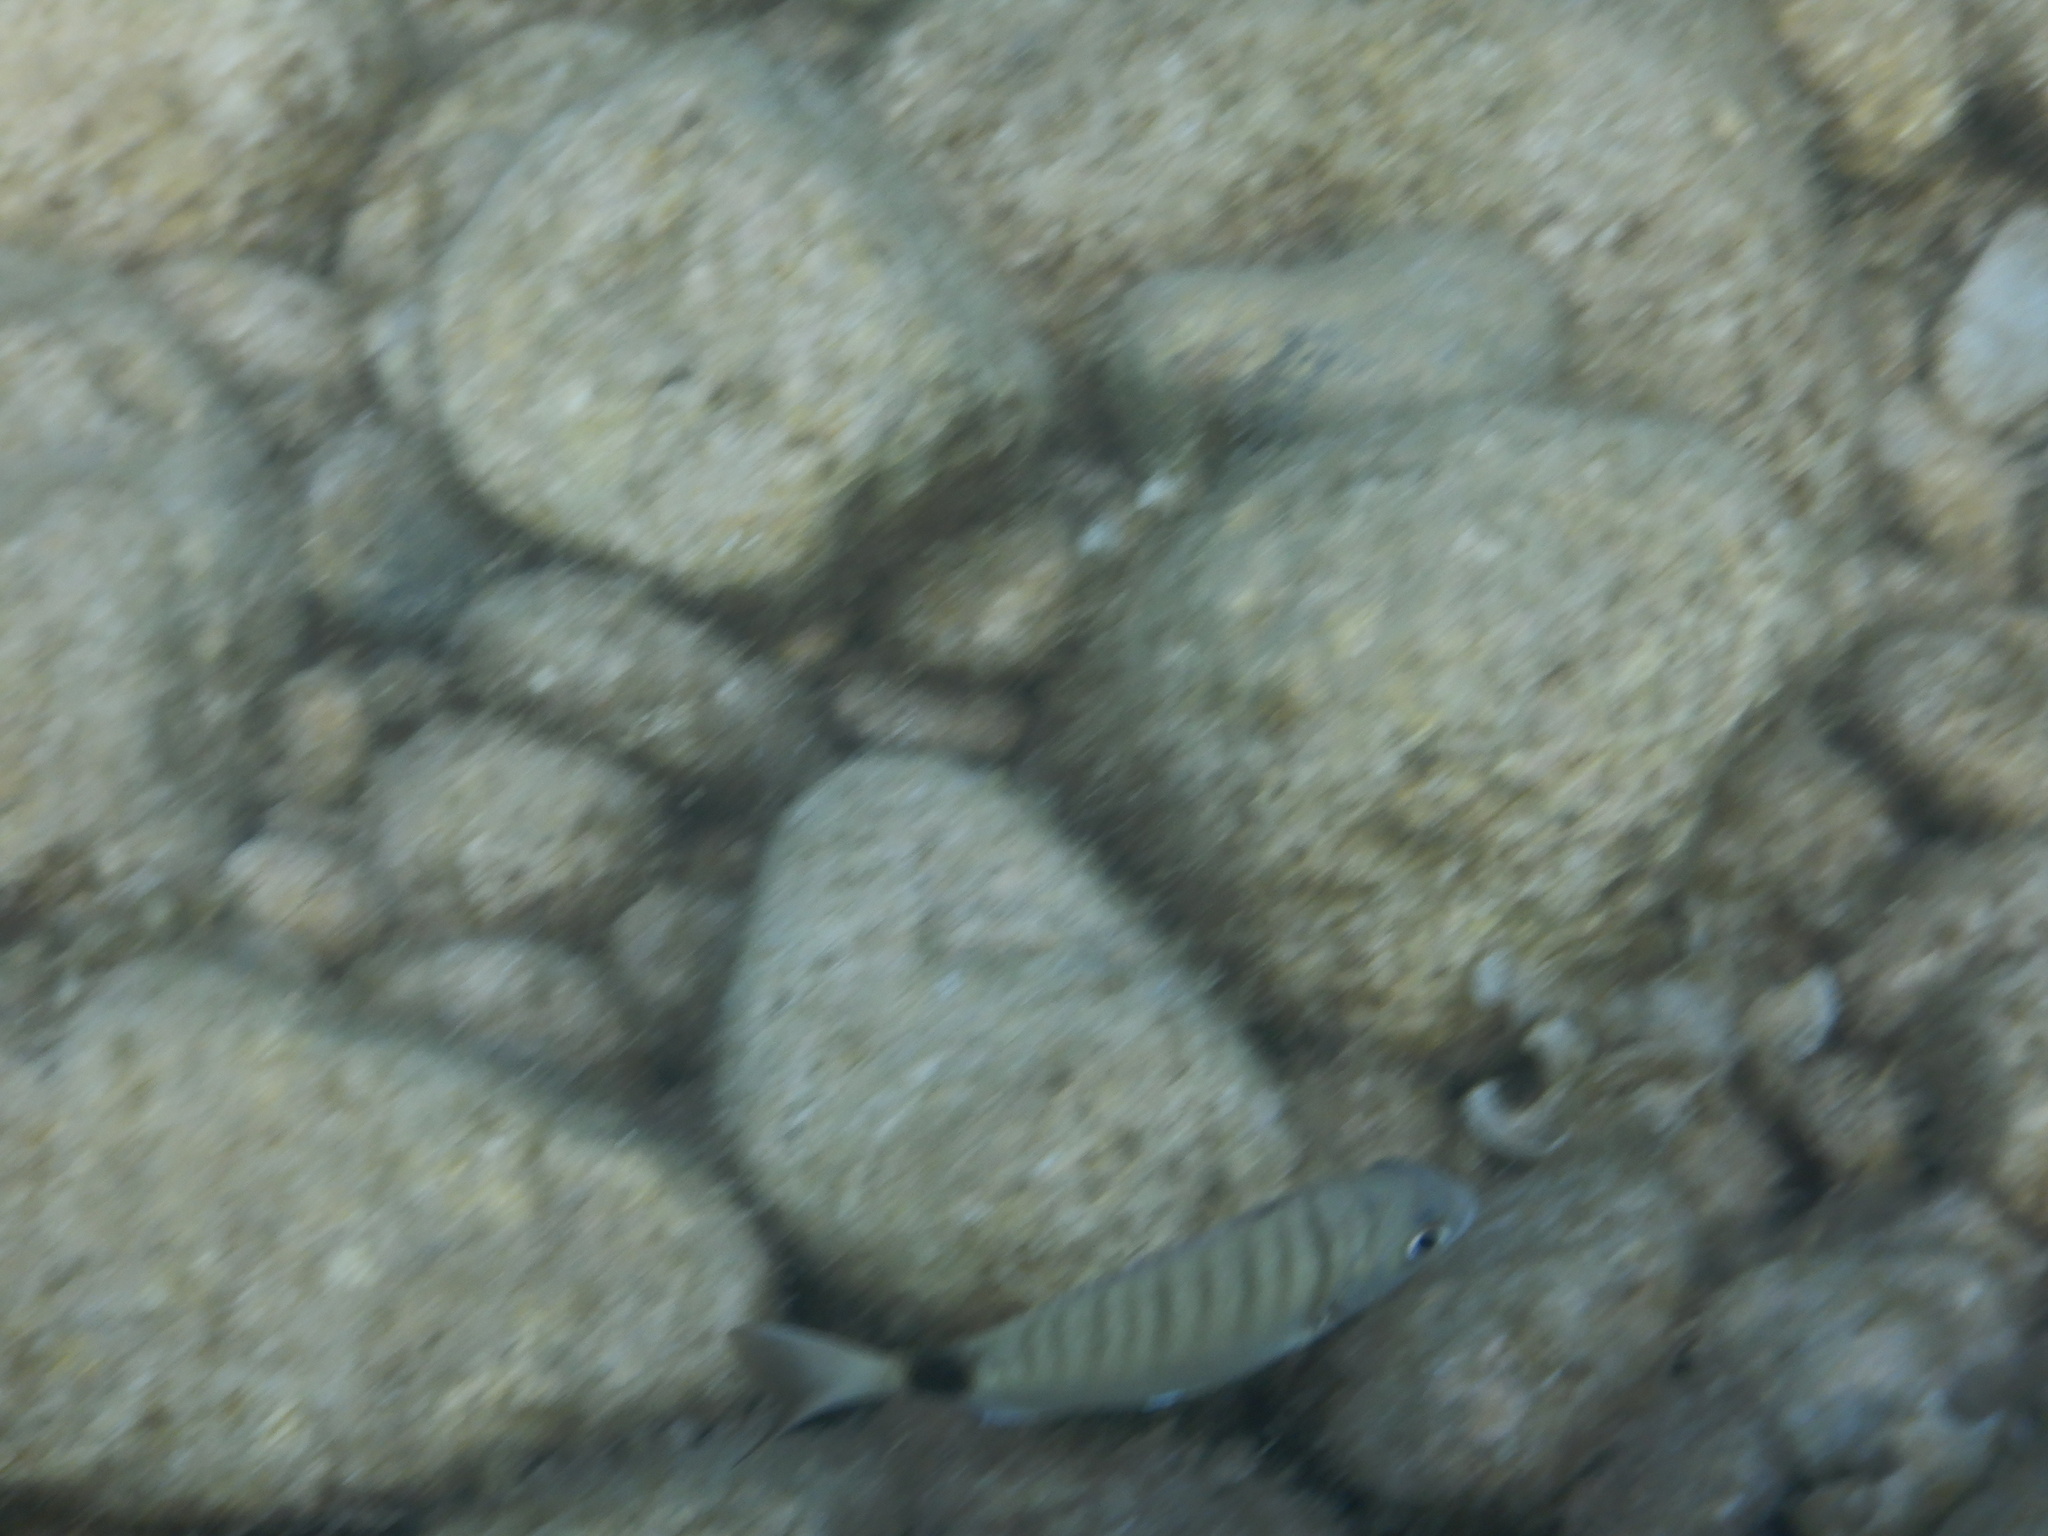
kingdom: Animalia
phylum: Chordata
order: Perciformes
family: Sparidae
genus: Diplodus
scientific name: Diplodus sargus
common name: White seabream
